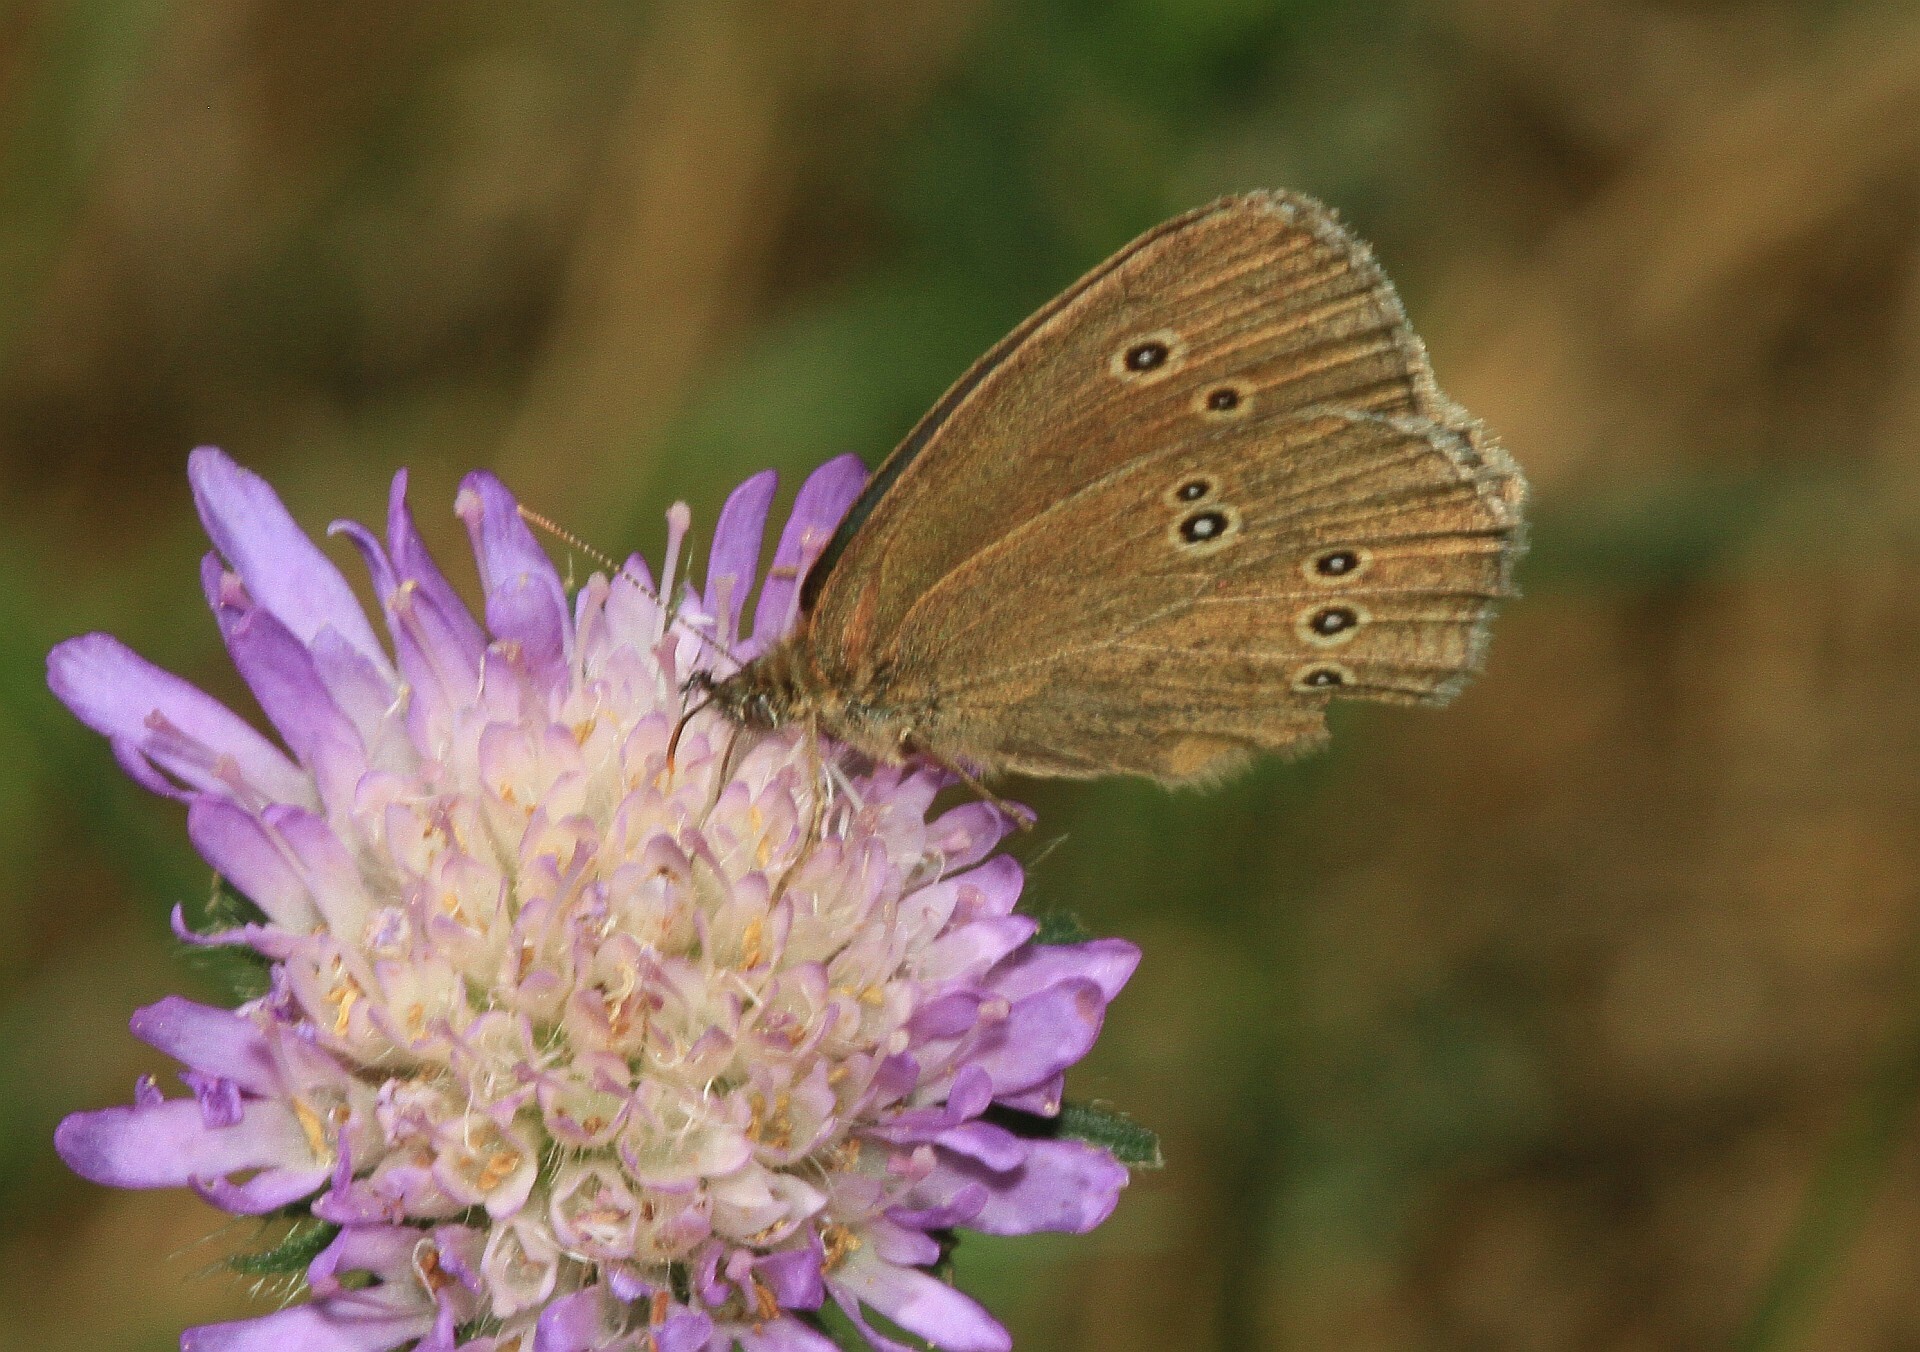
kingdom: Animalia
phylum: Arthropoda
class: Insecta
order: Lepidoptera
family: Nymphalidae
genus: Aphantopus
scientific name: Aphantopus hyperantus
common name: Ringlet
